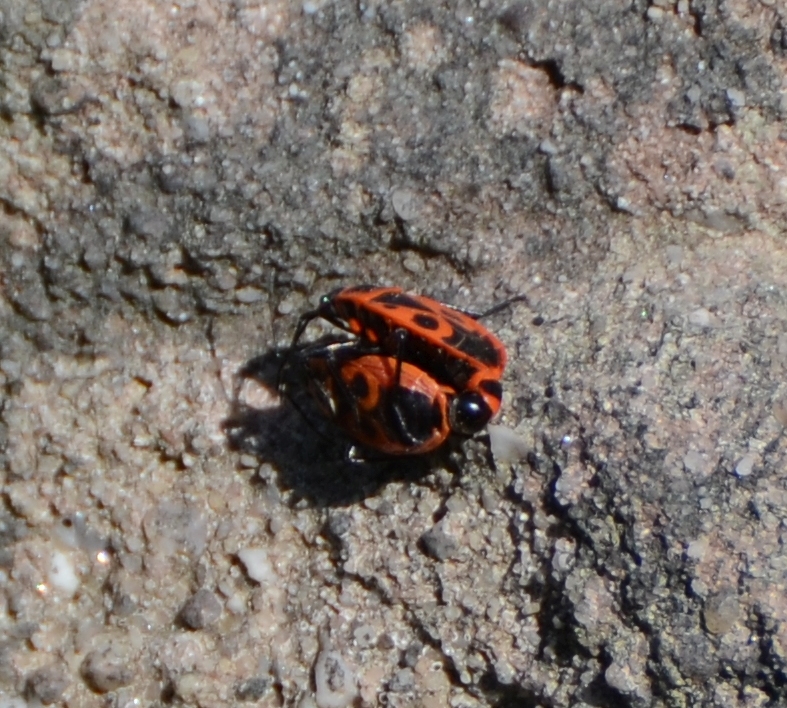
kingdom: Animalia
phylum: Arthropoda
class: Insecta
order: Hemiptera
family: Pyrrhocoridae
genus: Pyrrhocoris
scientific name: Pyrrhocoris apterus
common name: Firebug
